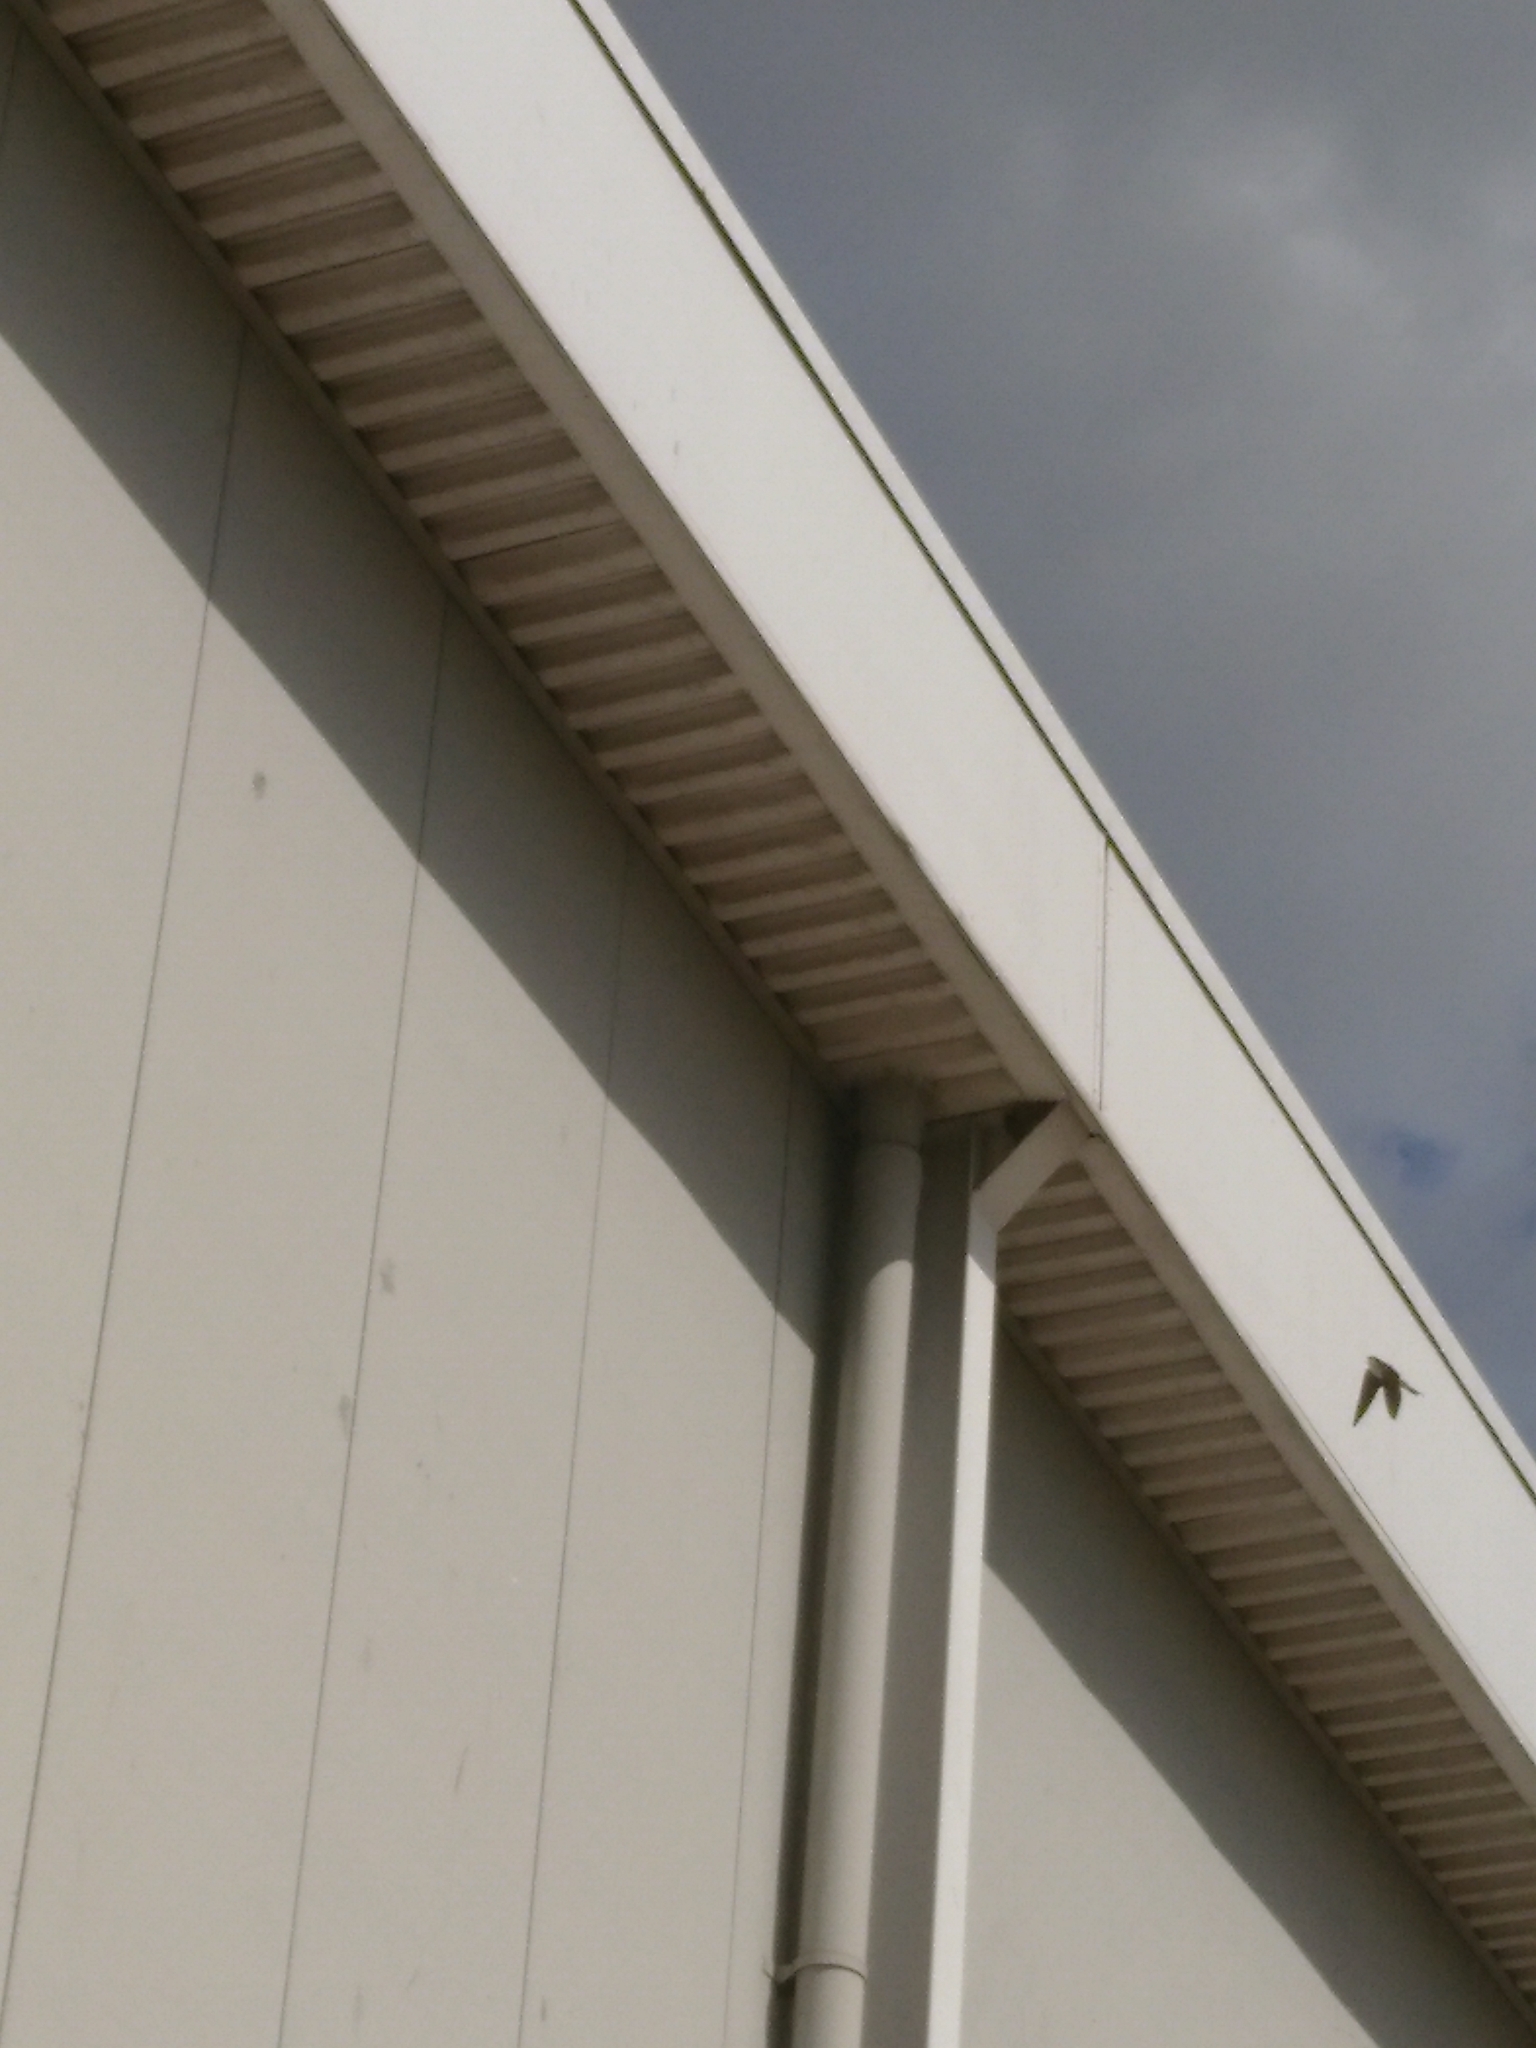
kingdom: Animalia
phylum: Chordata
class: Aves
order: Passeriformes
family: Hirundinidae
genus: Delichon
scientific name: Delichon urbicum
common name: Common house martin
